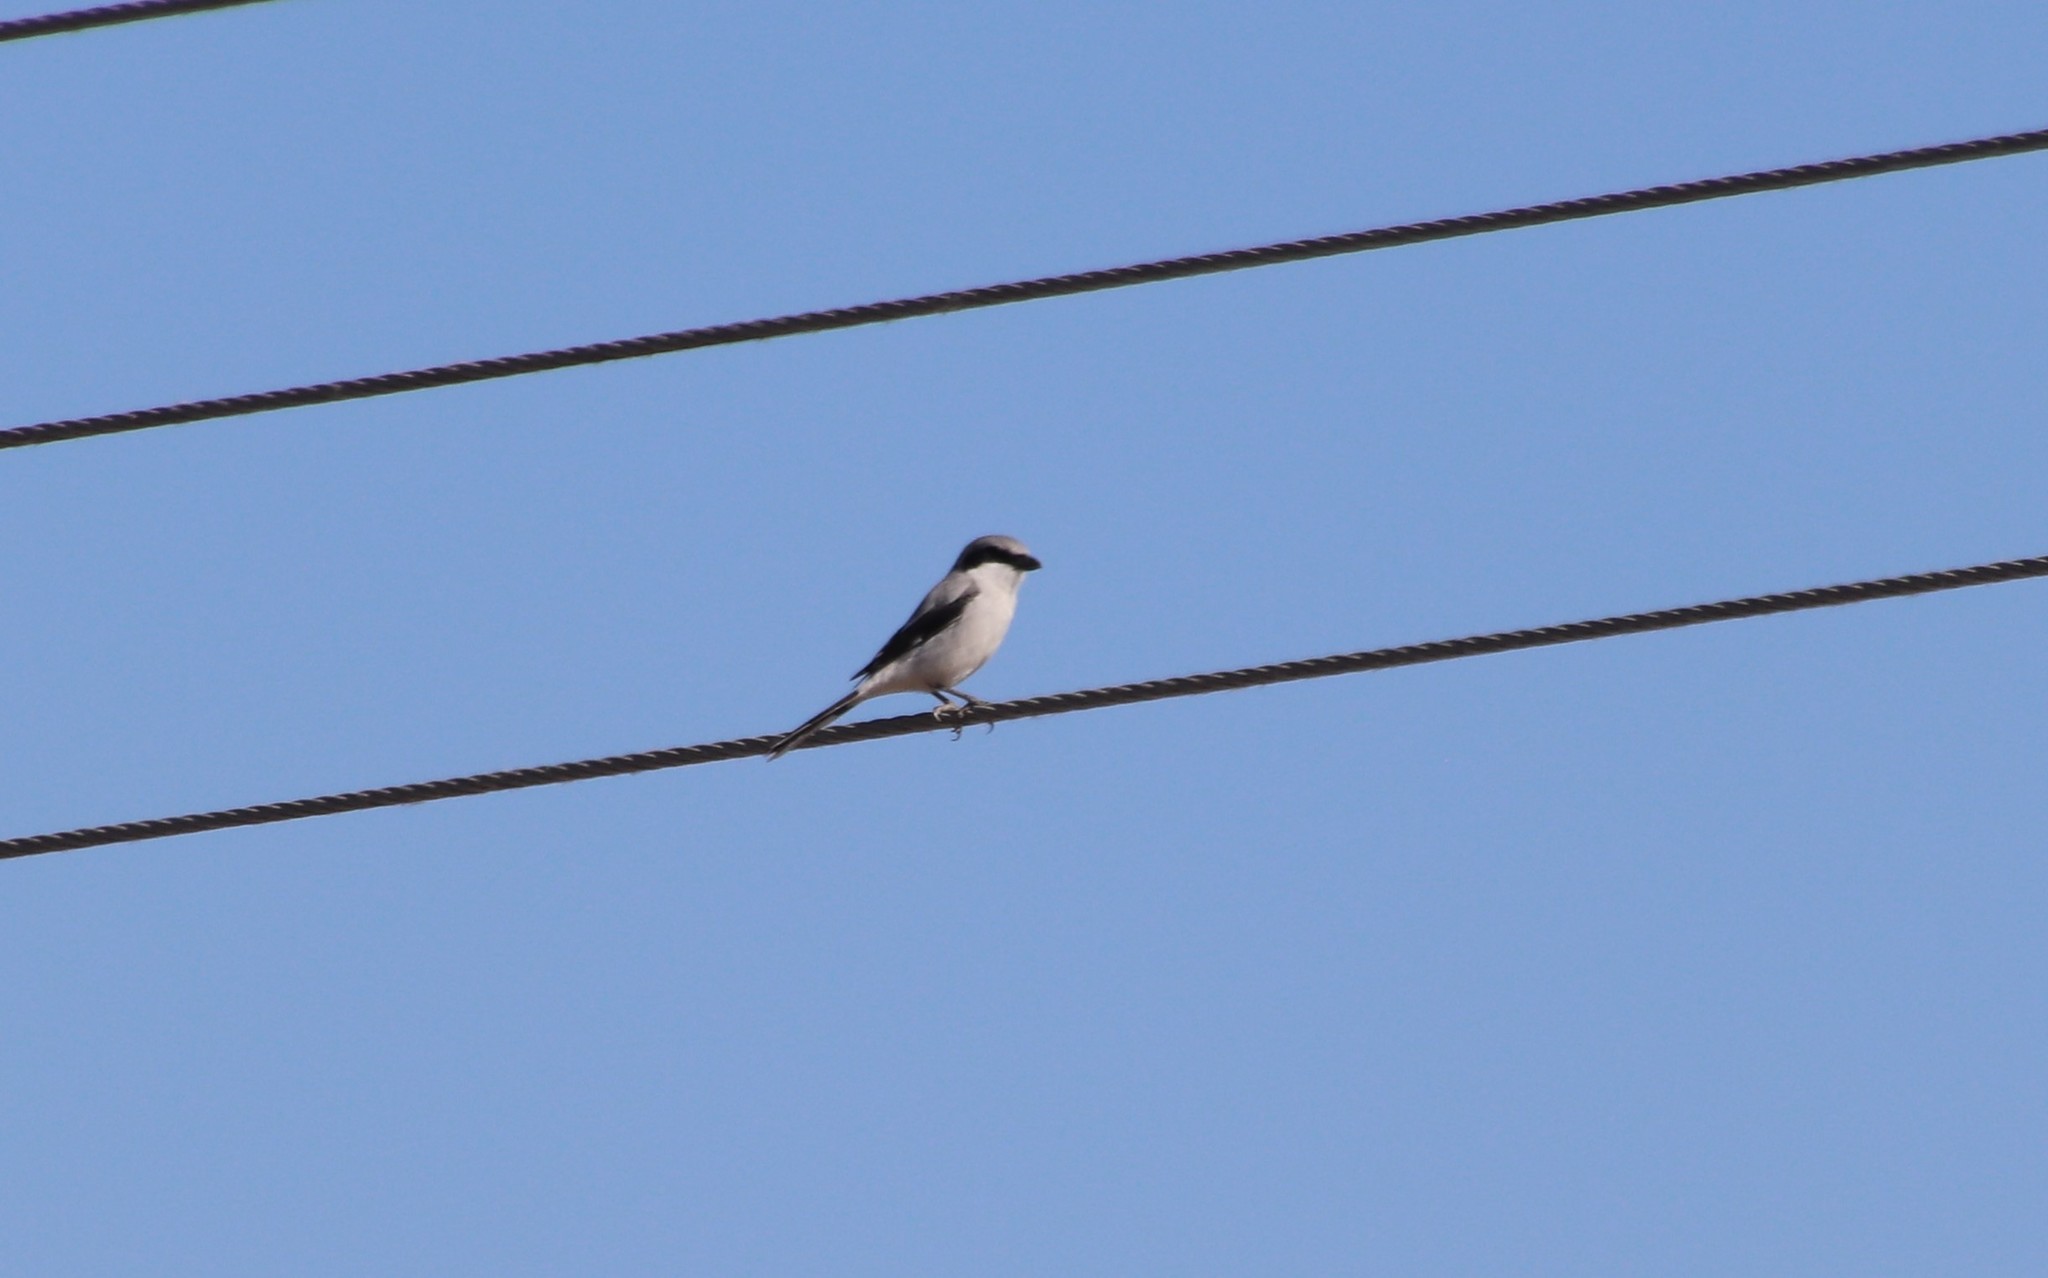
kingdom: Animalia
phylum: Chordata
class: Aves
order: Passeriformes
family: Laniidae
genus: Lanius
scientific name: Lanius ludovicianus
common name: Loggerhead shrike
